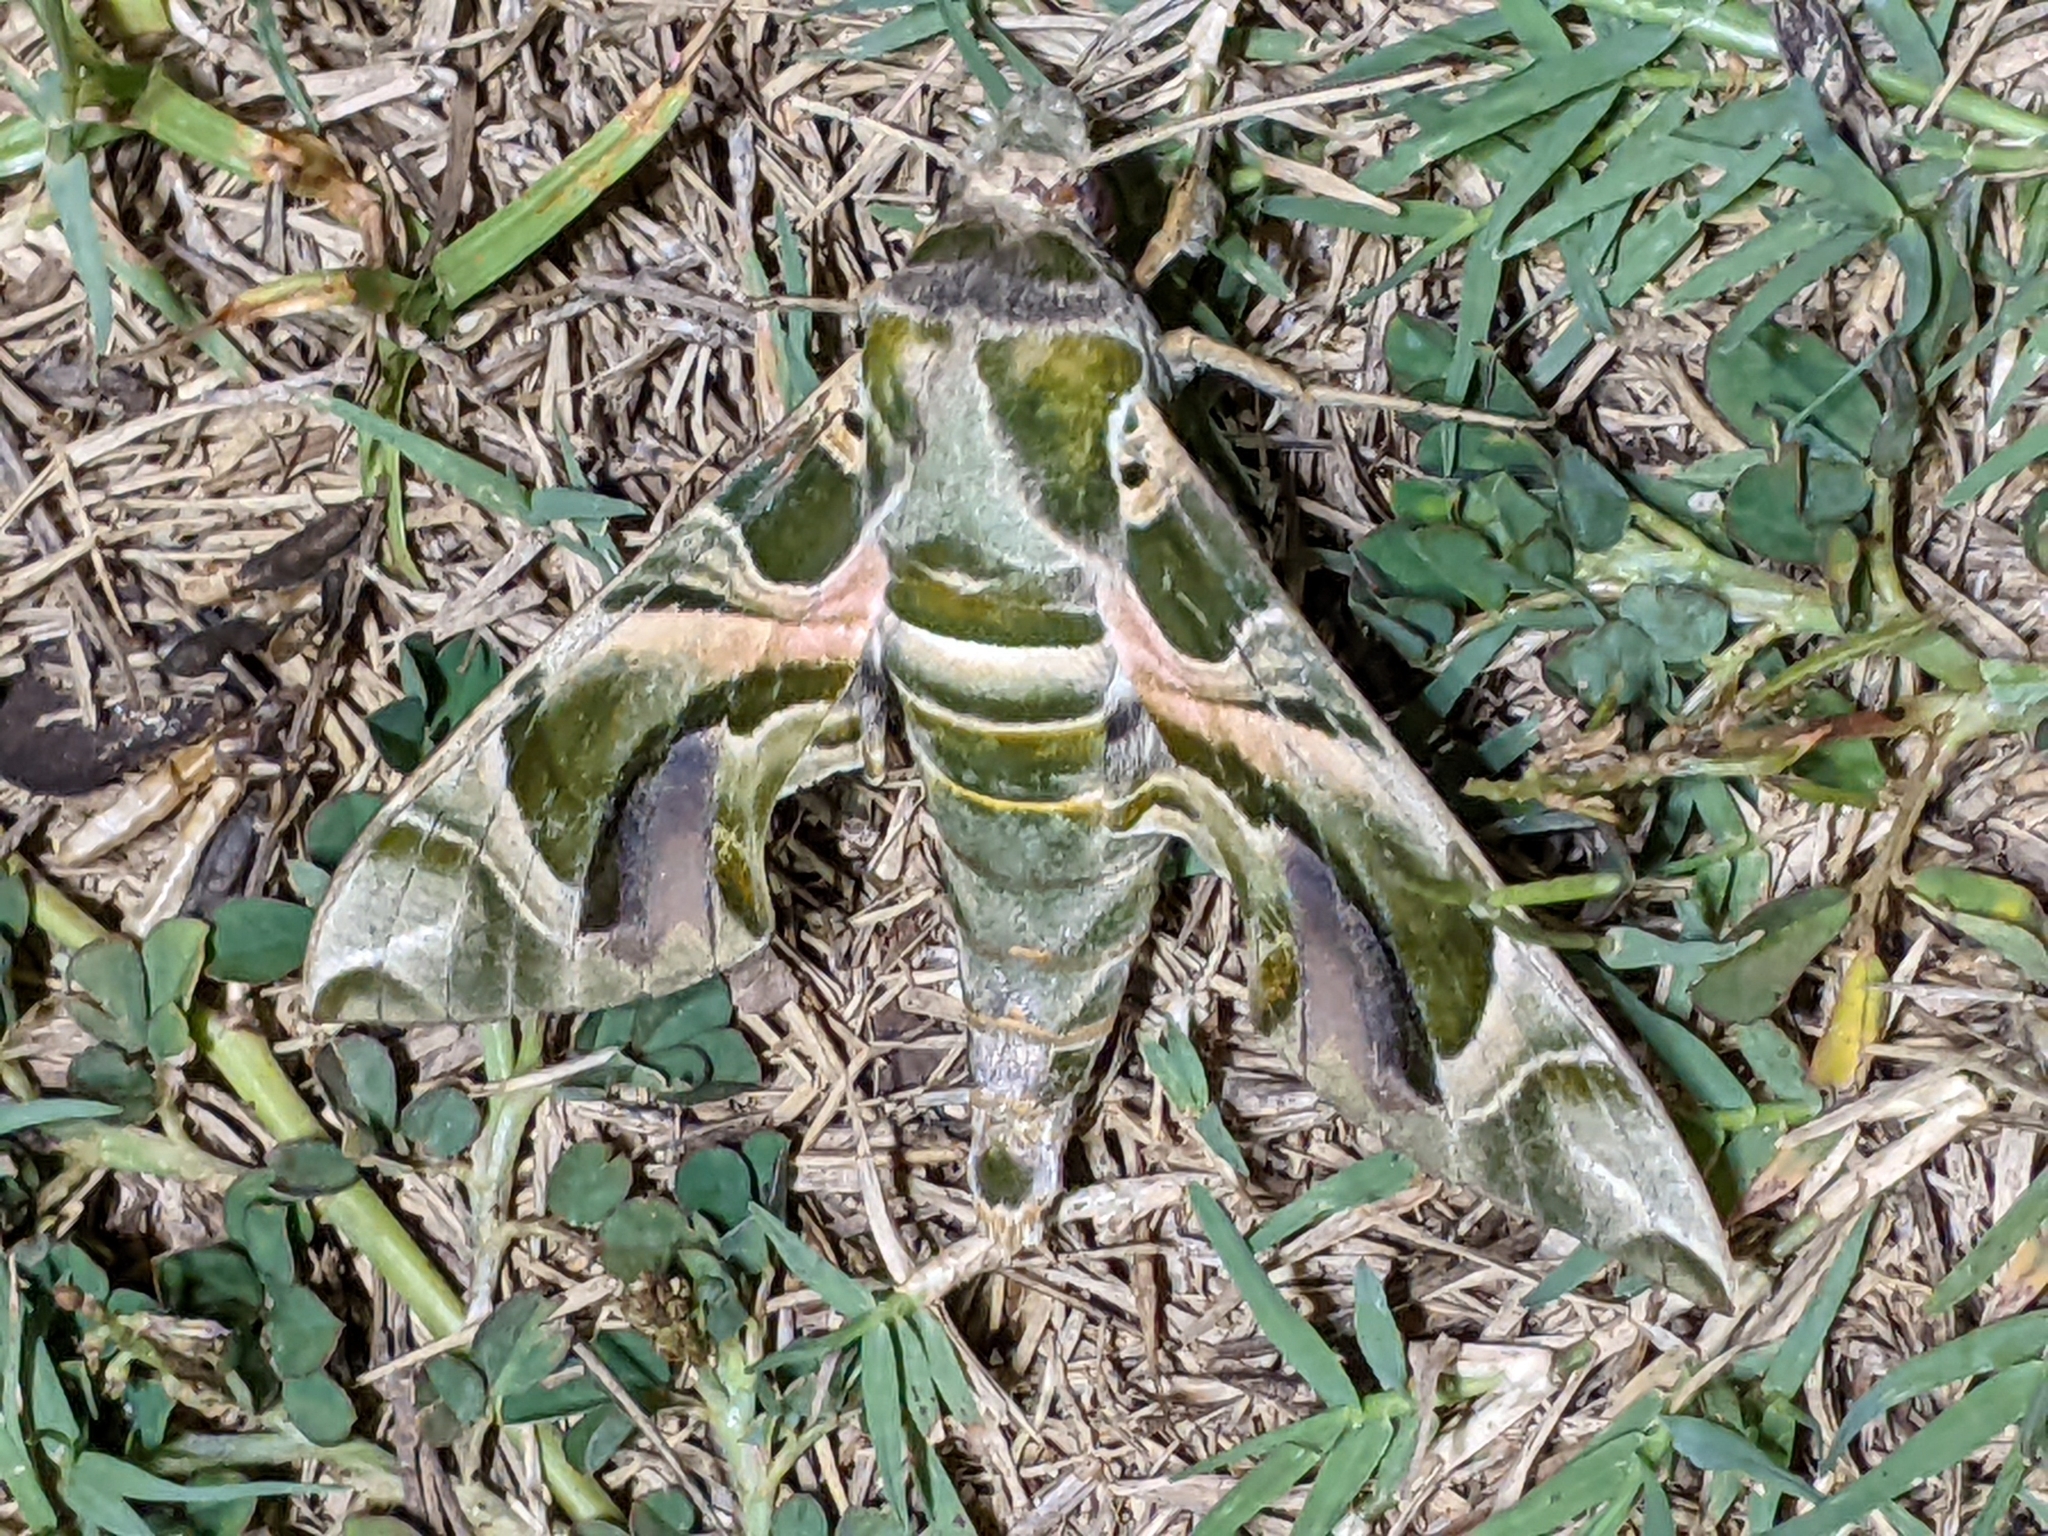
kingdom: Animalia
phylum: Arthropoda
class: Insecta
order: Lepidoptera
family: Sphingidae
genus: Daphnis
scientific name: Daphnis nerii
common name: Oleander hawk-moth
